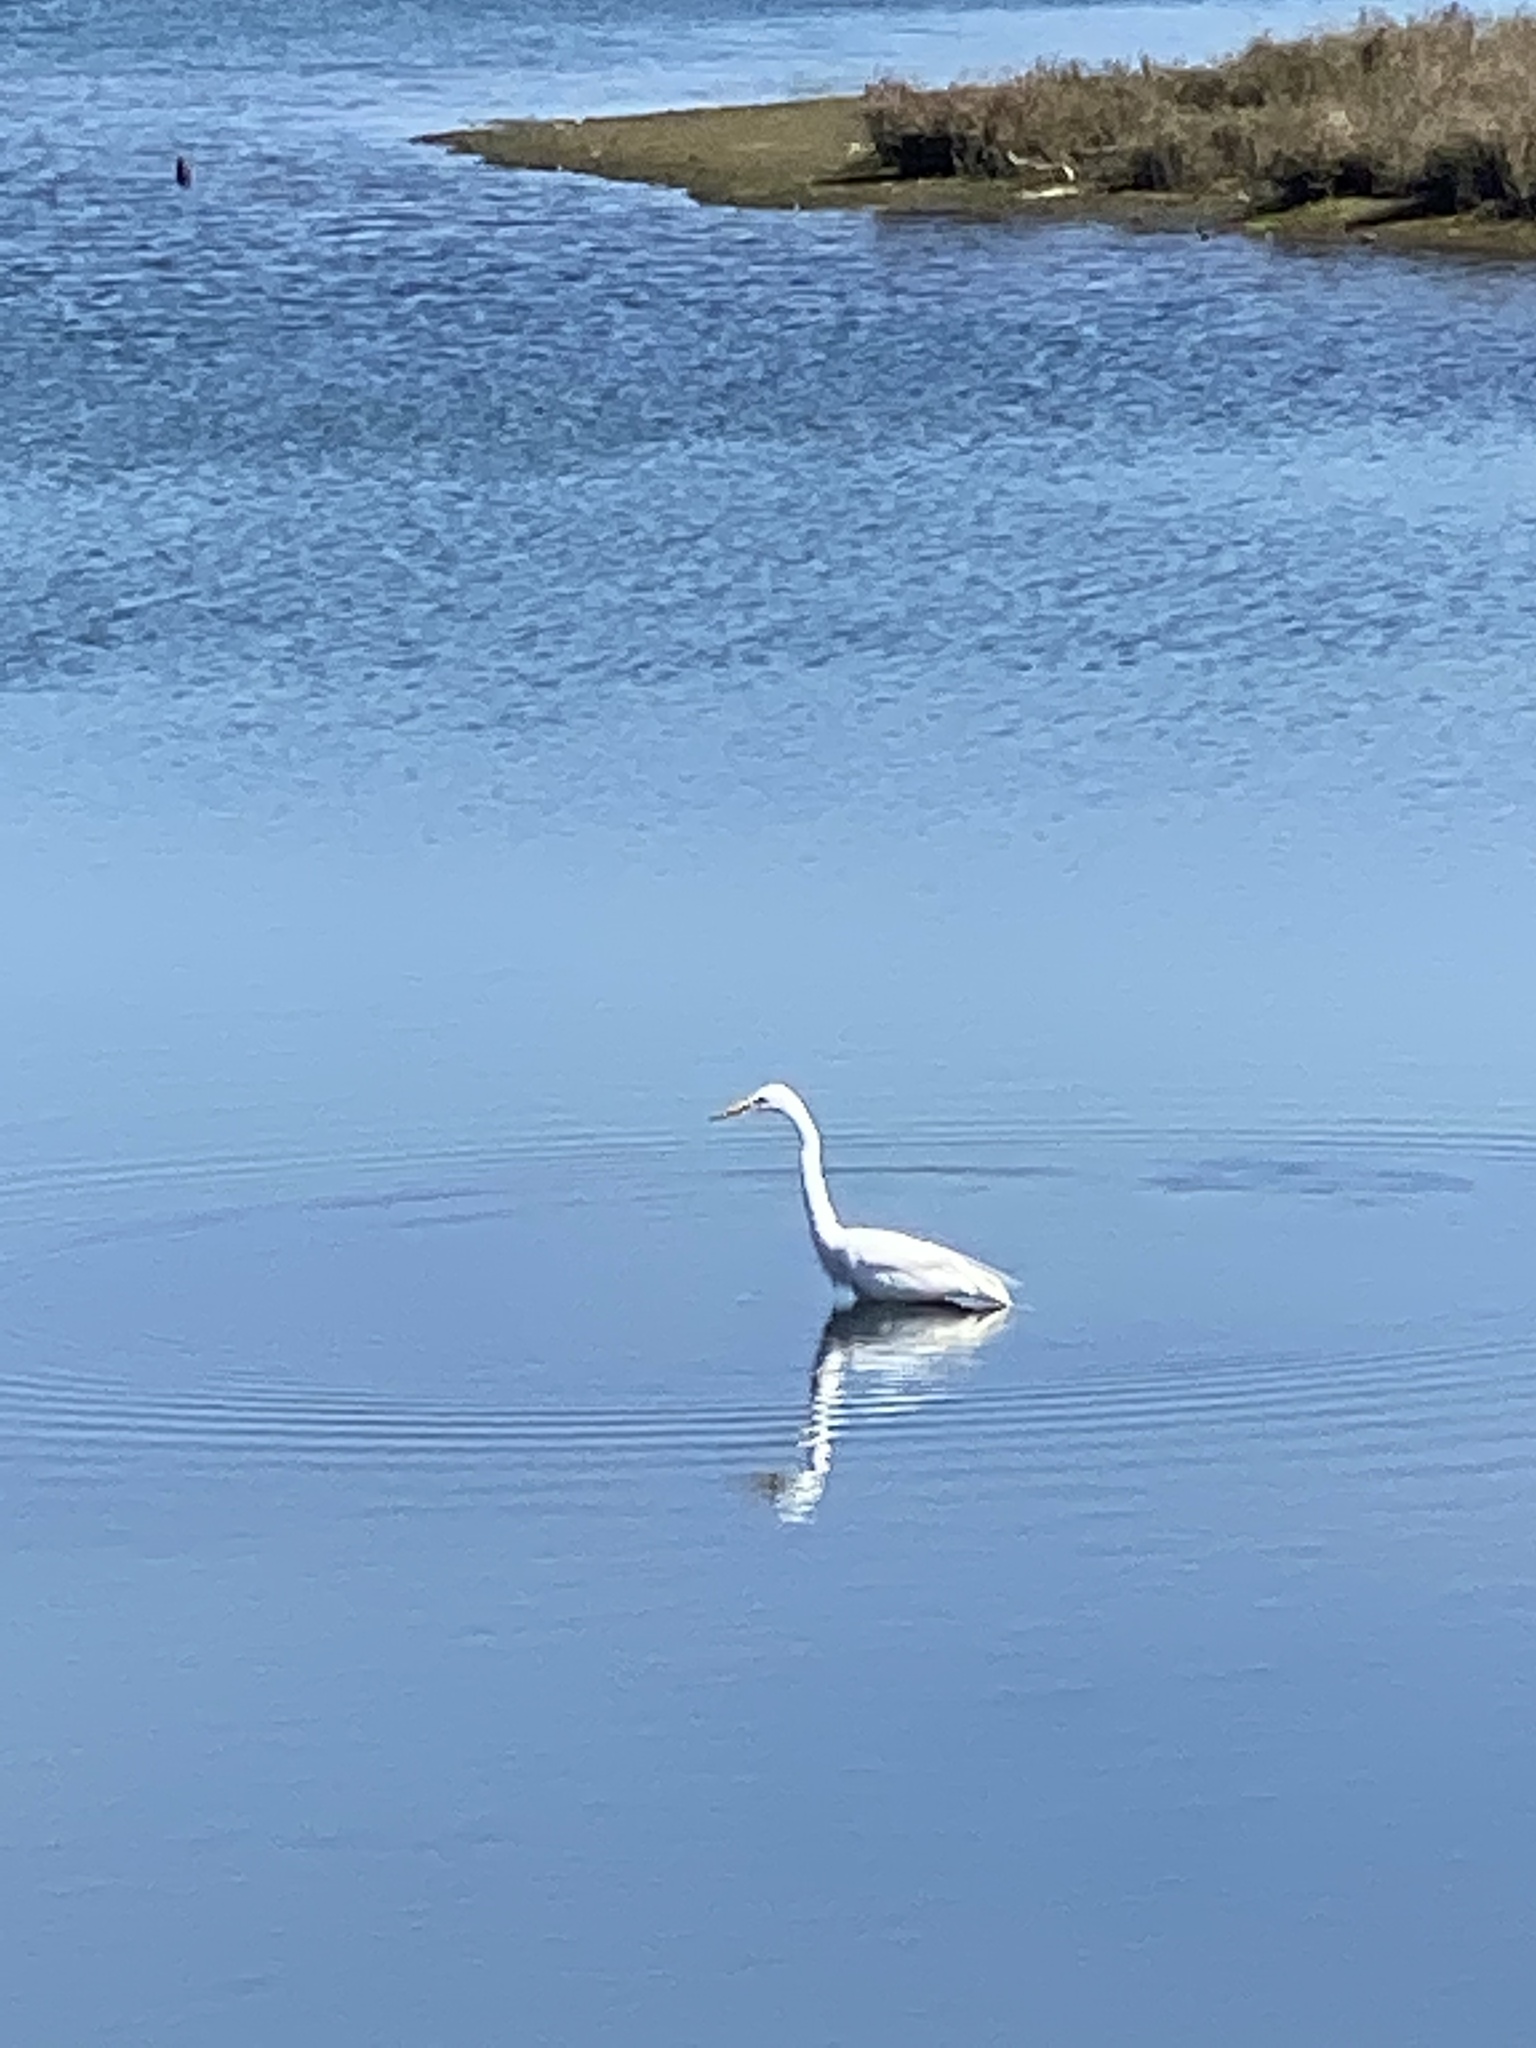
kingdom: Animalia
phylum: Chordata
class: Aves
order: Pelecaniformes
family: Ardeidae
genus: Ardea
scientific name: Ardea alba
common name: Great egret
